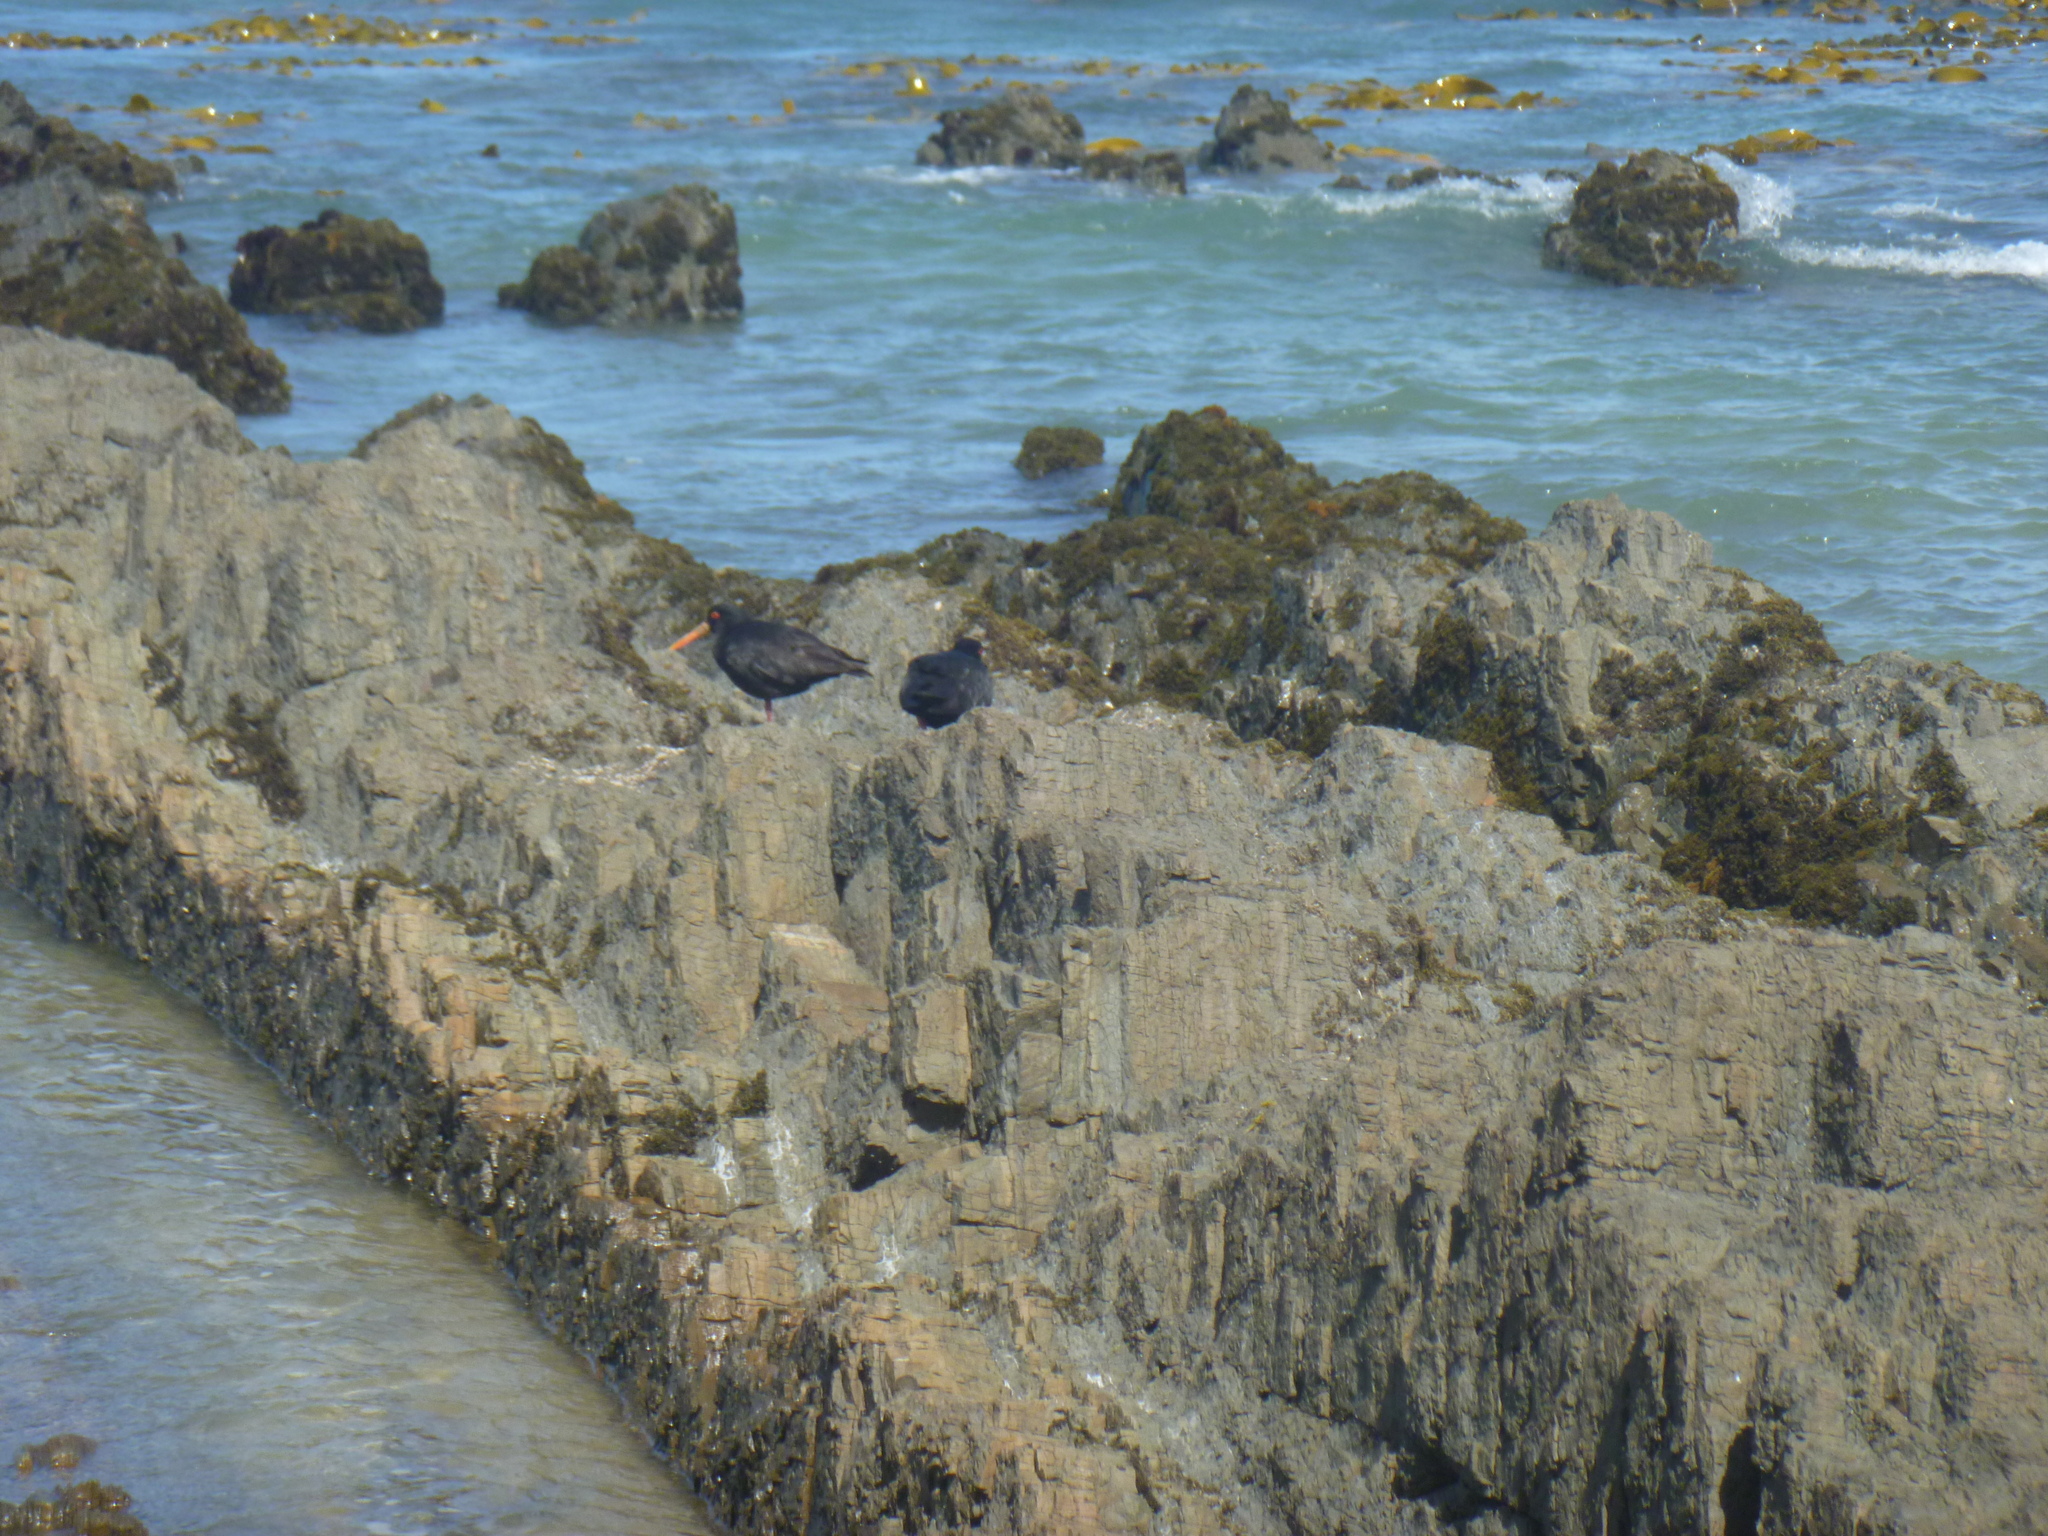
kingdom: Animalia
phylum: Chordata
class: Aves
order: Charadriiformes
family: Haematopodidae
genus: Haematopus
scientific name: Haematopus unicolor
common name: Variable oystercatcher
